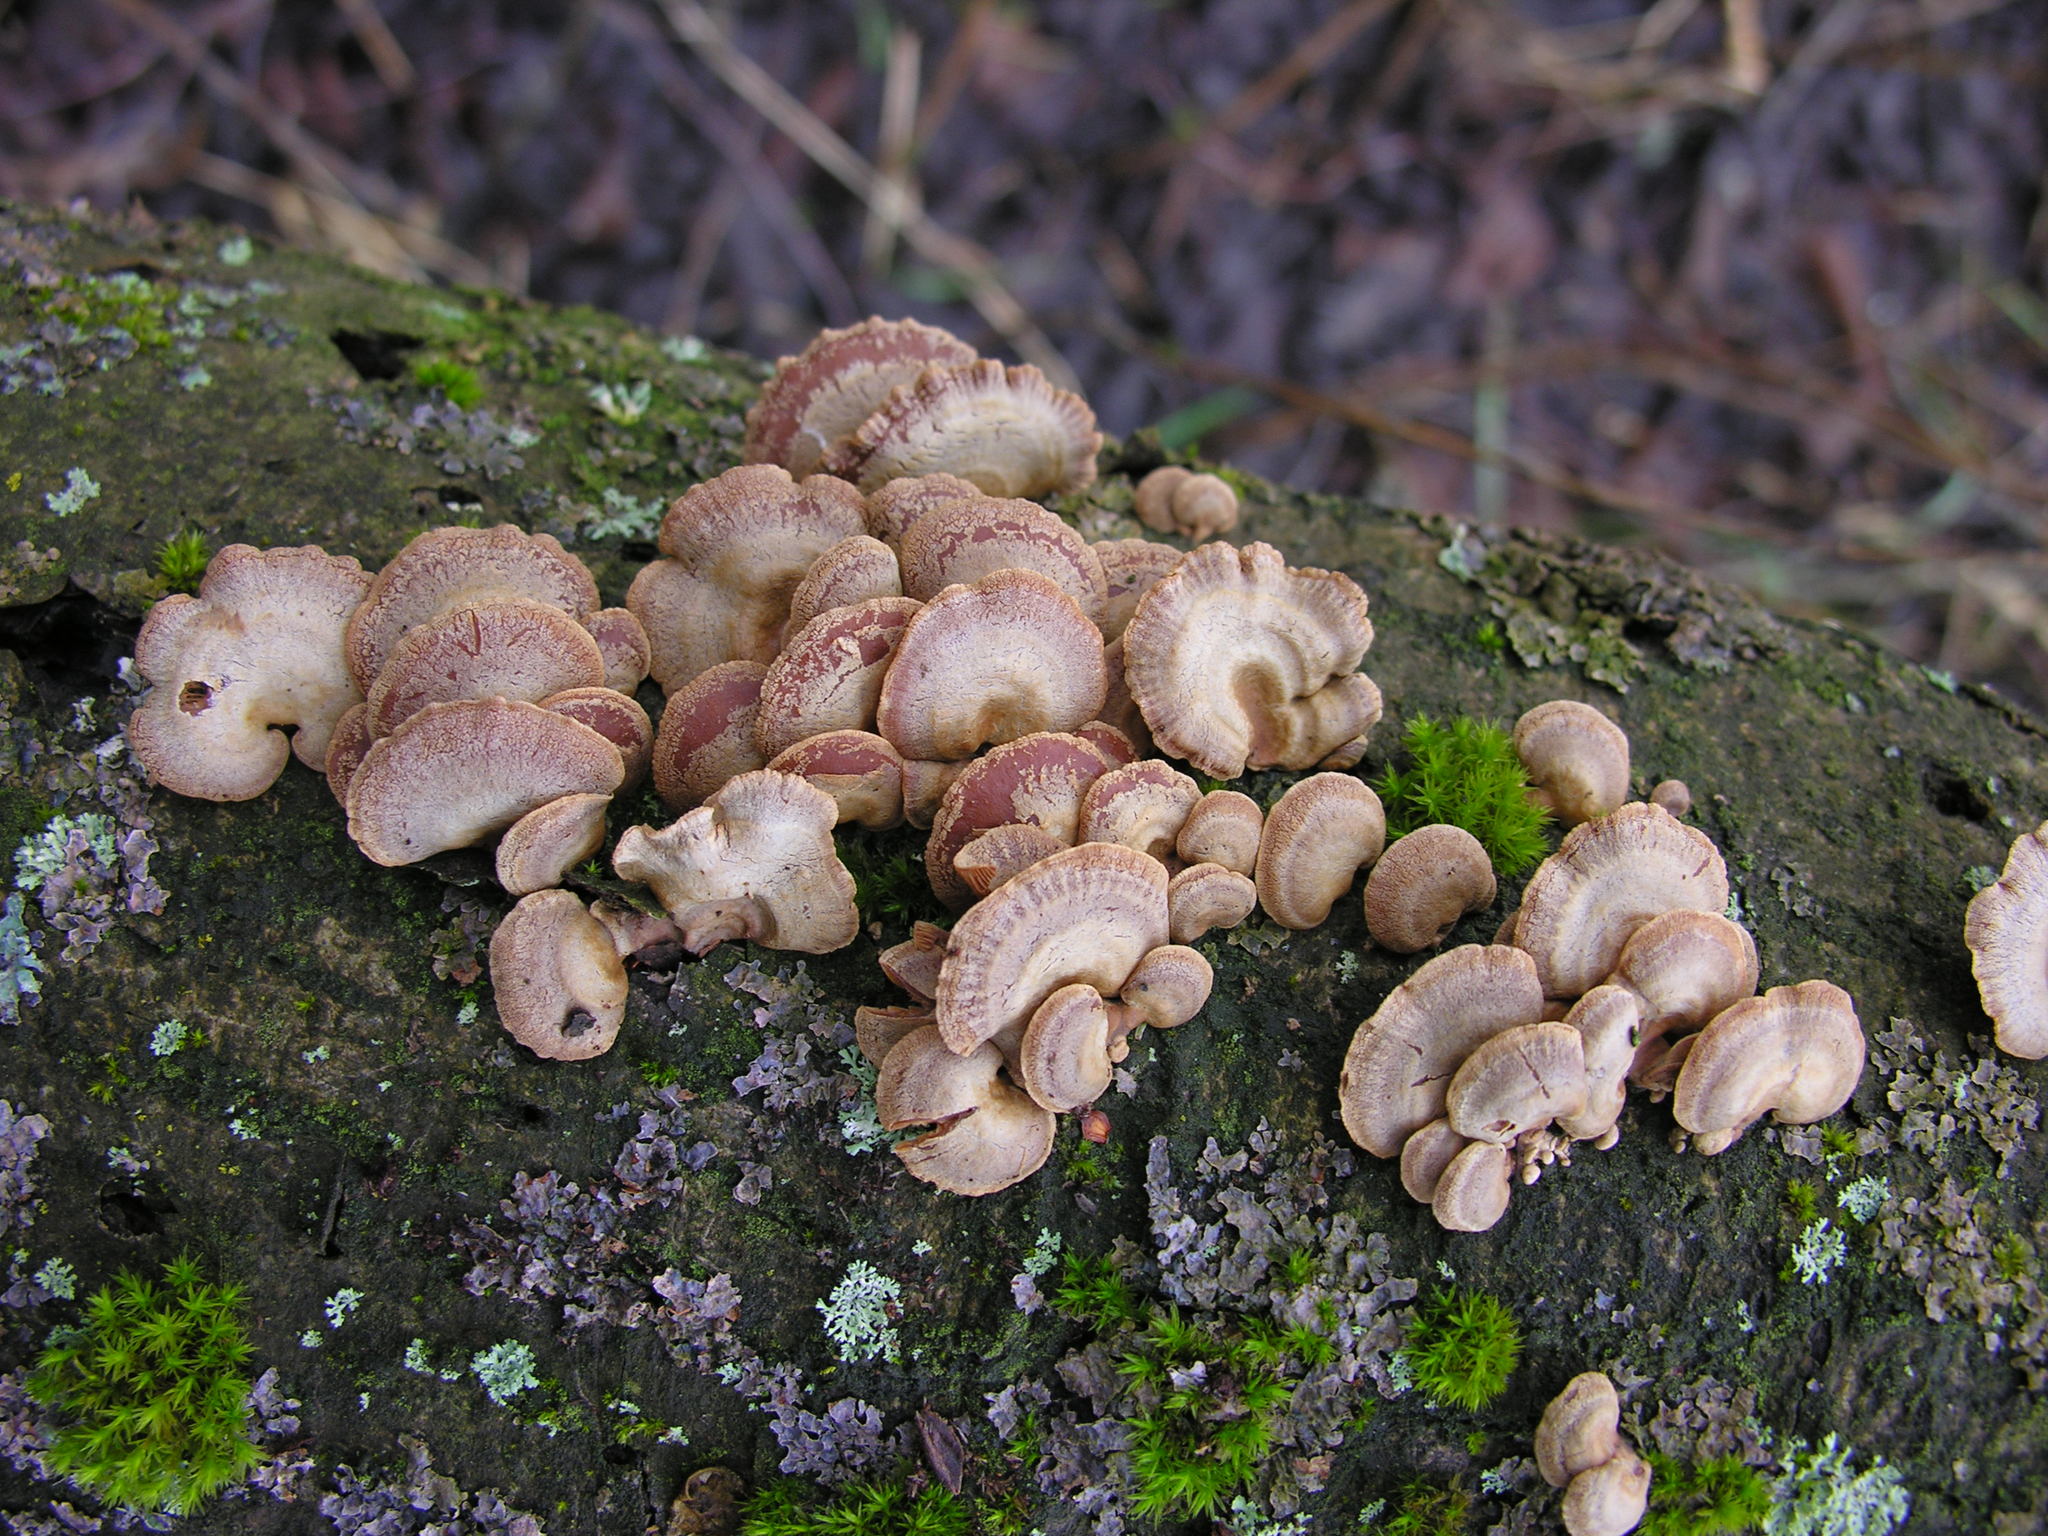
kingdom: Fungi
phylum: Basidiomycota
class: Agaricomycetes
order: Agaricales
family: Mycenaceae
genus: Panellus
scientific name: Panellus stipticus
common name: Bitter oysterling
